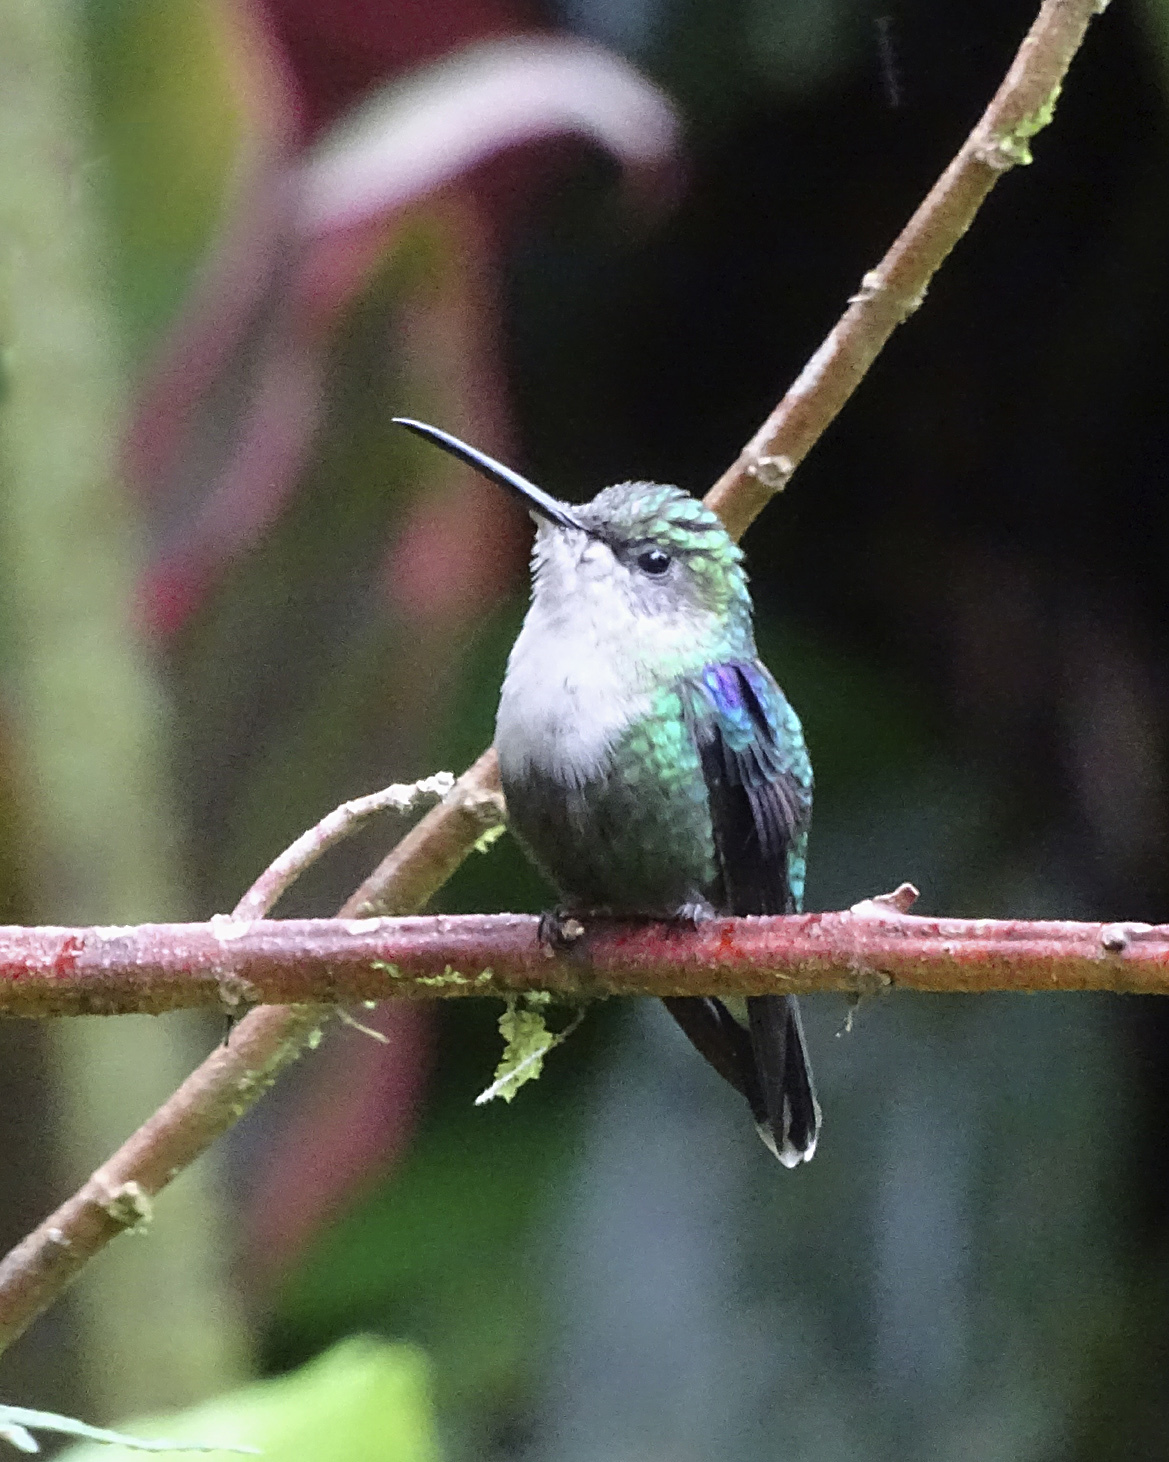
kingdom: Animalia
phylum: Chordata
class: Aves
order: Apodiformes
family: Trochilidae
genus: Thalurania
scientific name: Thalurania colombica
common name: Crowned woodnymph
